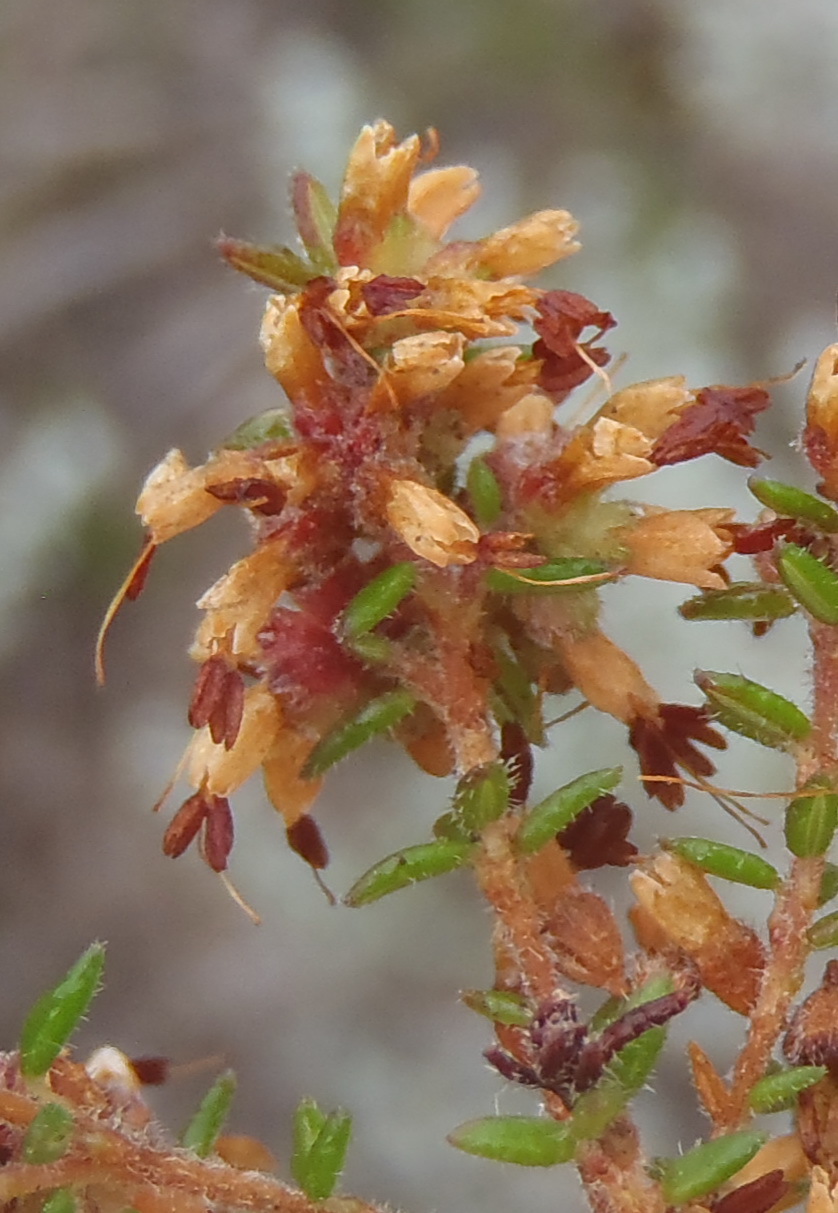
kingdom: Plantae
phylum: Tracheophyta
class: Magnoliopsida
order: Ericales
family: Ericaceae
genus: Erica
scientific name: Erica radicans
